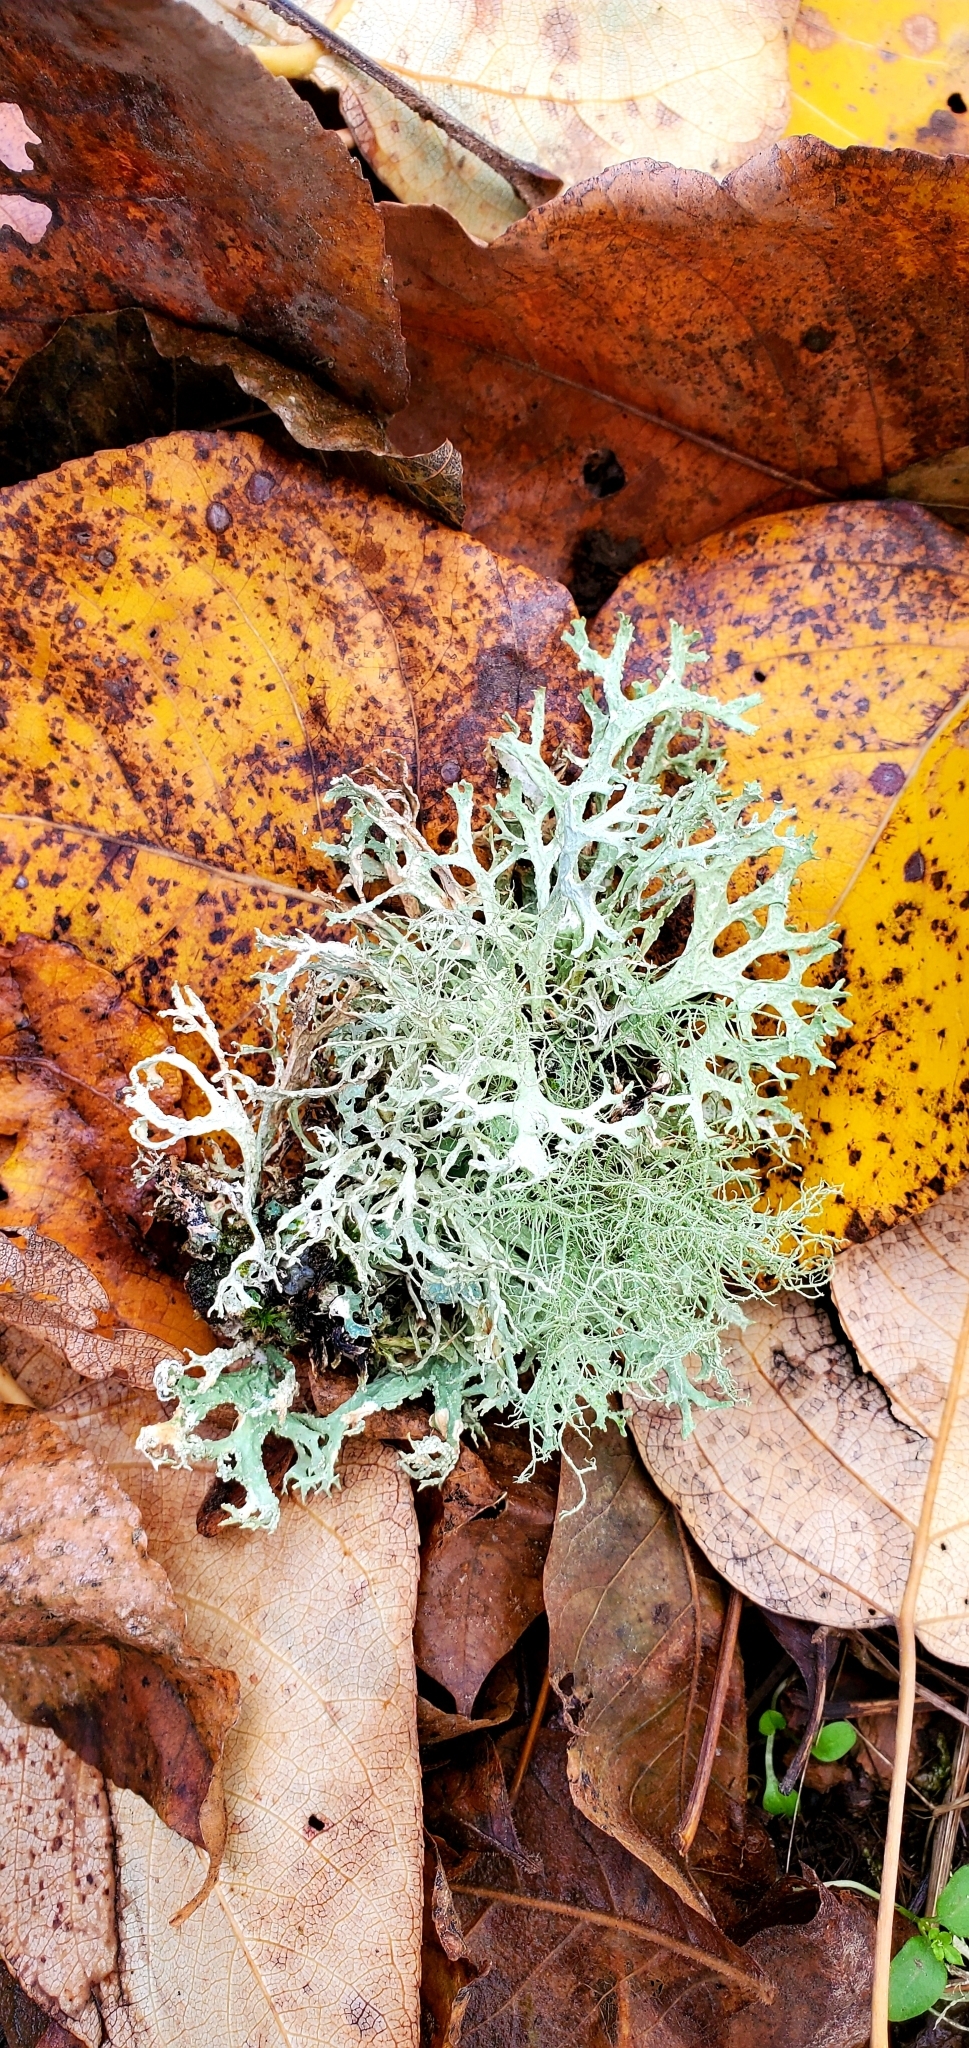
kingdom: Fungi
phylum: Ascomycota
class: Lecanoromycetes
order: Lecanorales
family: Parmeliaceae
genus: Evernia
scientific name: Evernia prunastri
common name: Oak moss
